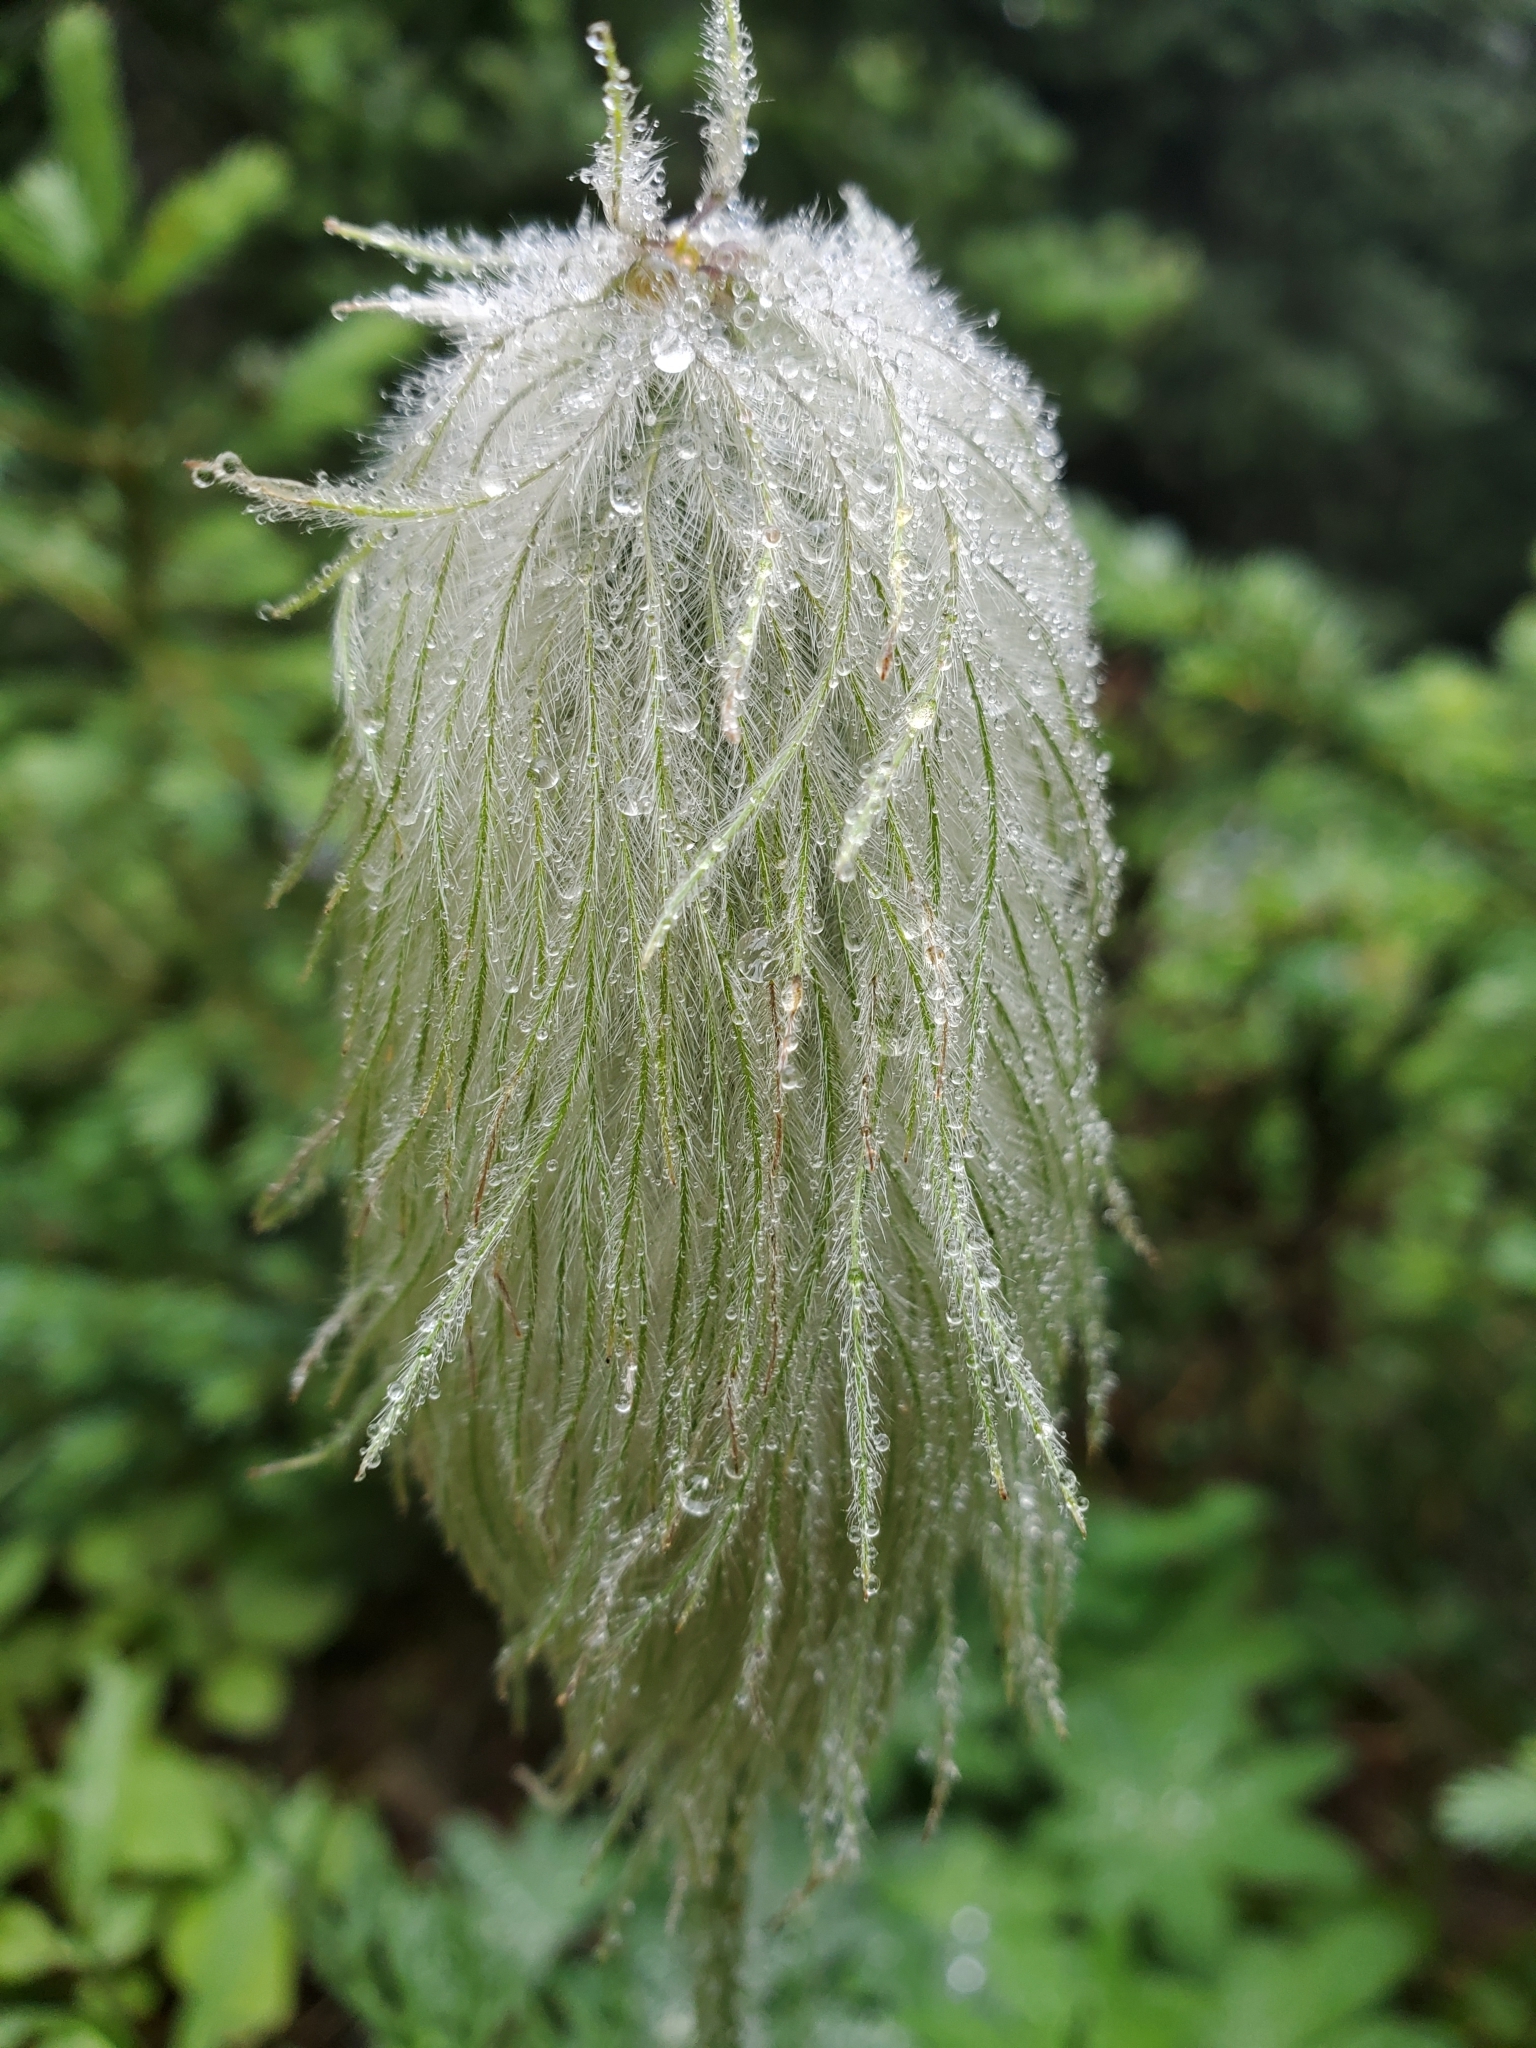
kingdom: Plantae
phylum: Tracheophyta
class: Magnoliopsida
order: Ranunculales
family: Ranunculaceae
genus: Pulsatilla
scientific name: Pulsatilla occidentalis
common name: Mountain pasqueflower
